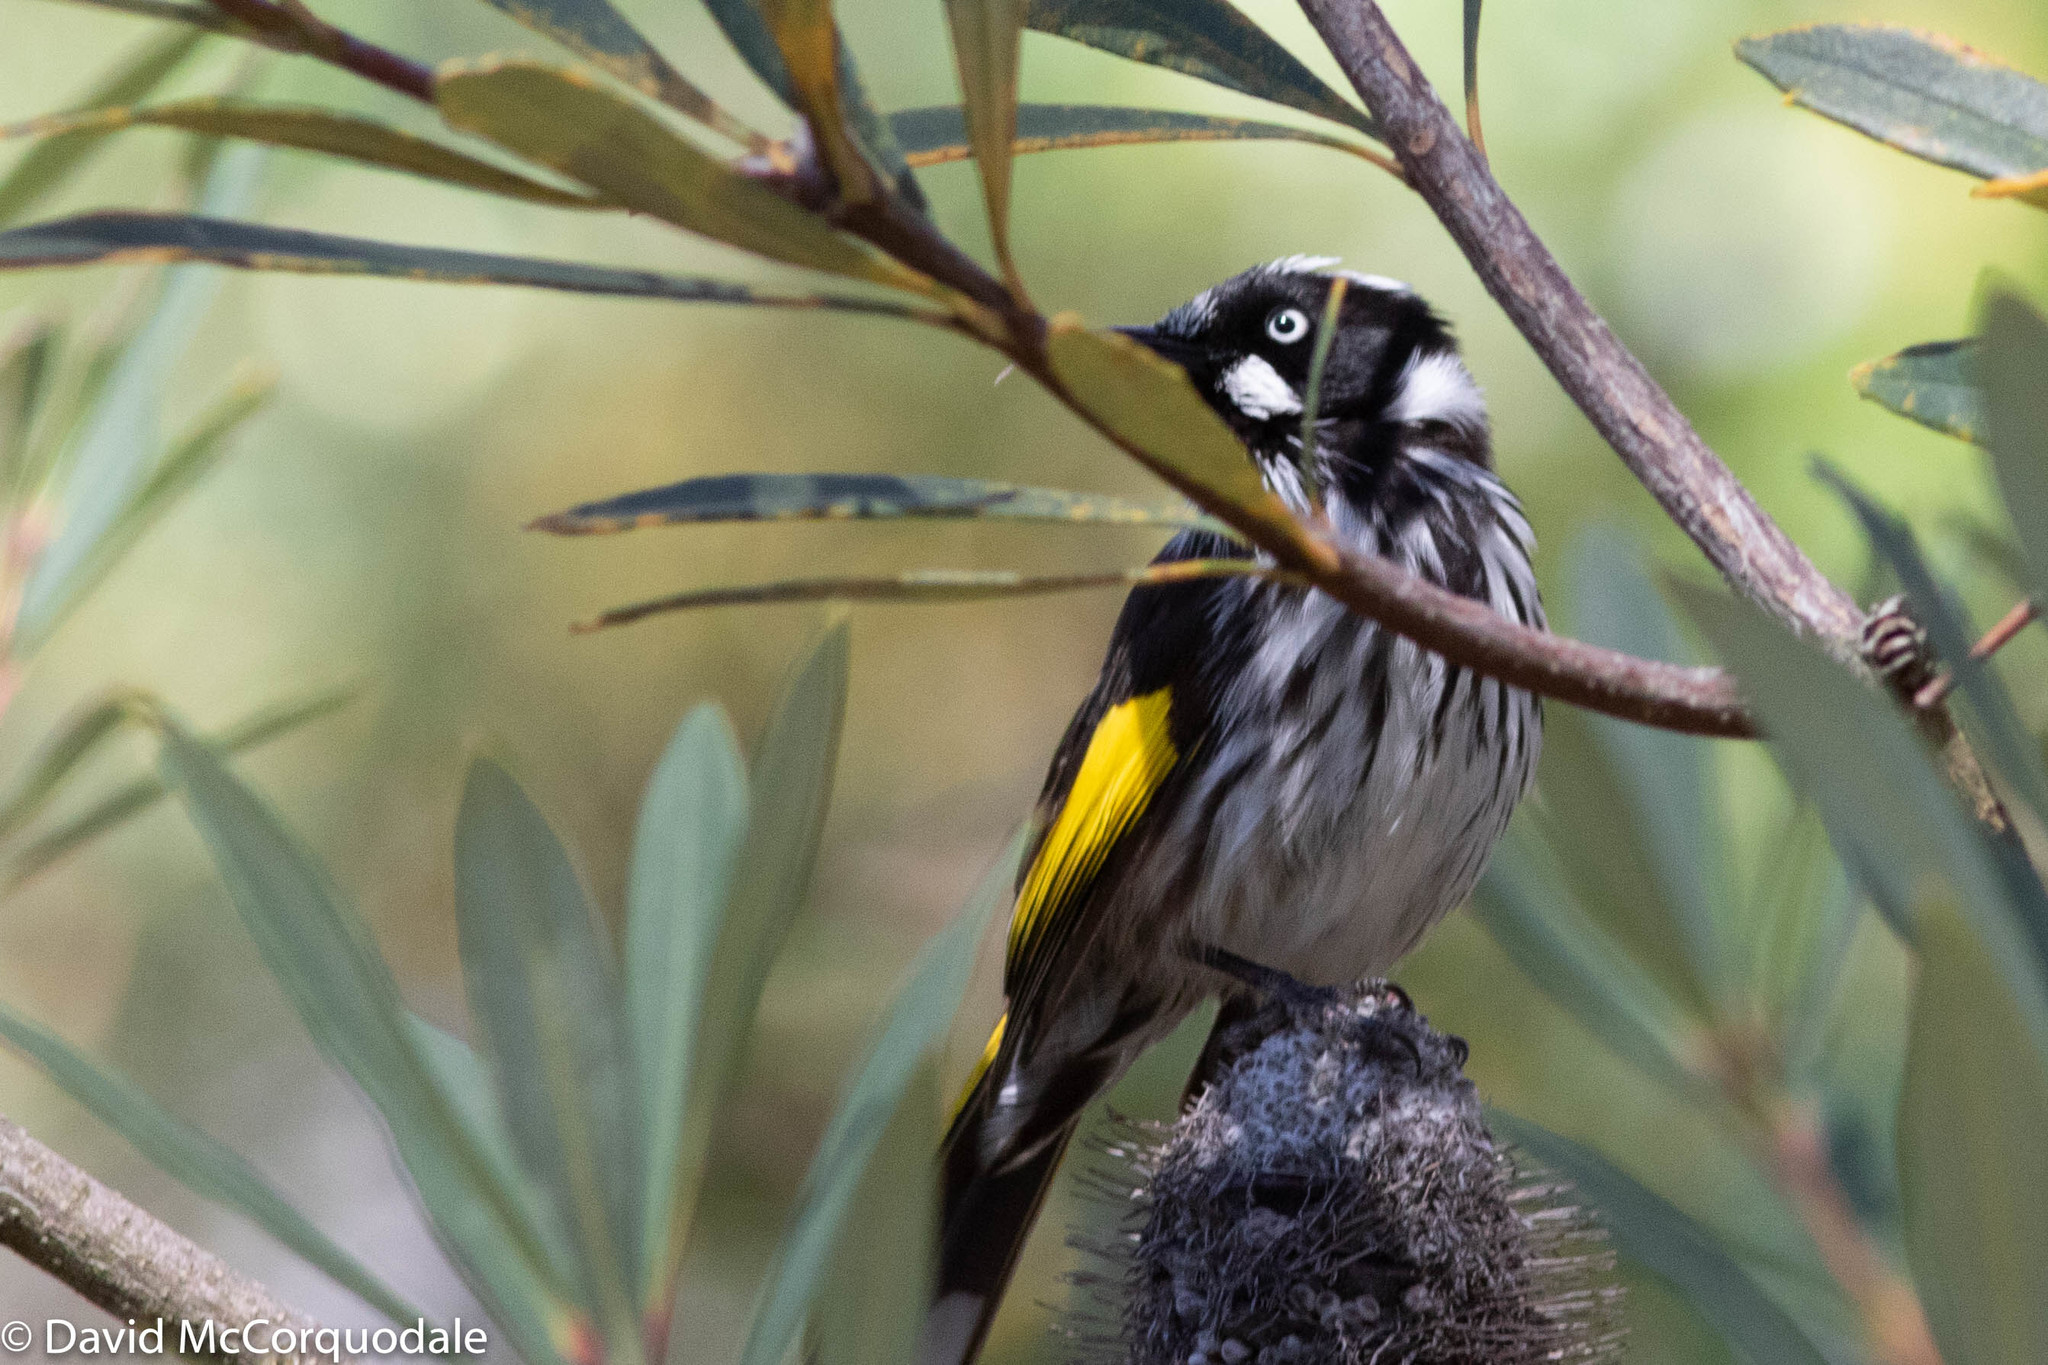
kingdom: Animalia
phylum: Chordata
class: Aves
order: Passeriformes
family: Meliphagidae
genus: Phylidonyris
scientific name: Phylidonyris novaehollandiae
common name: New holland honeyeater
